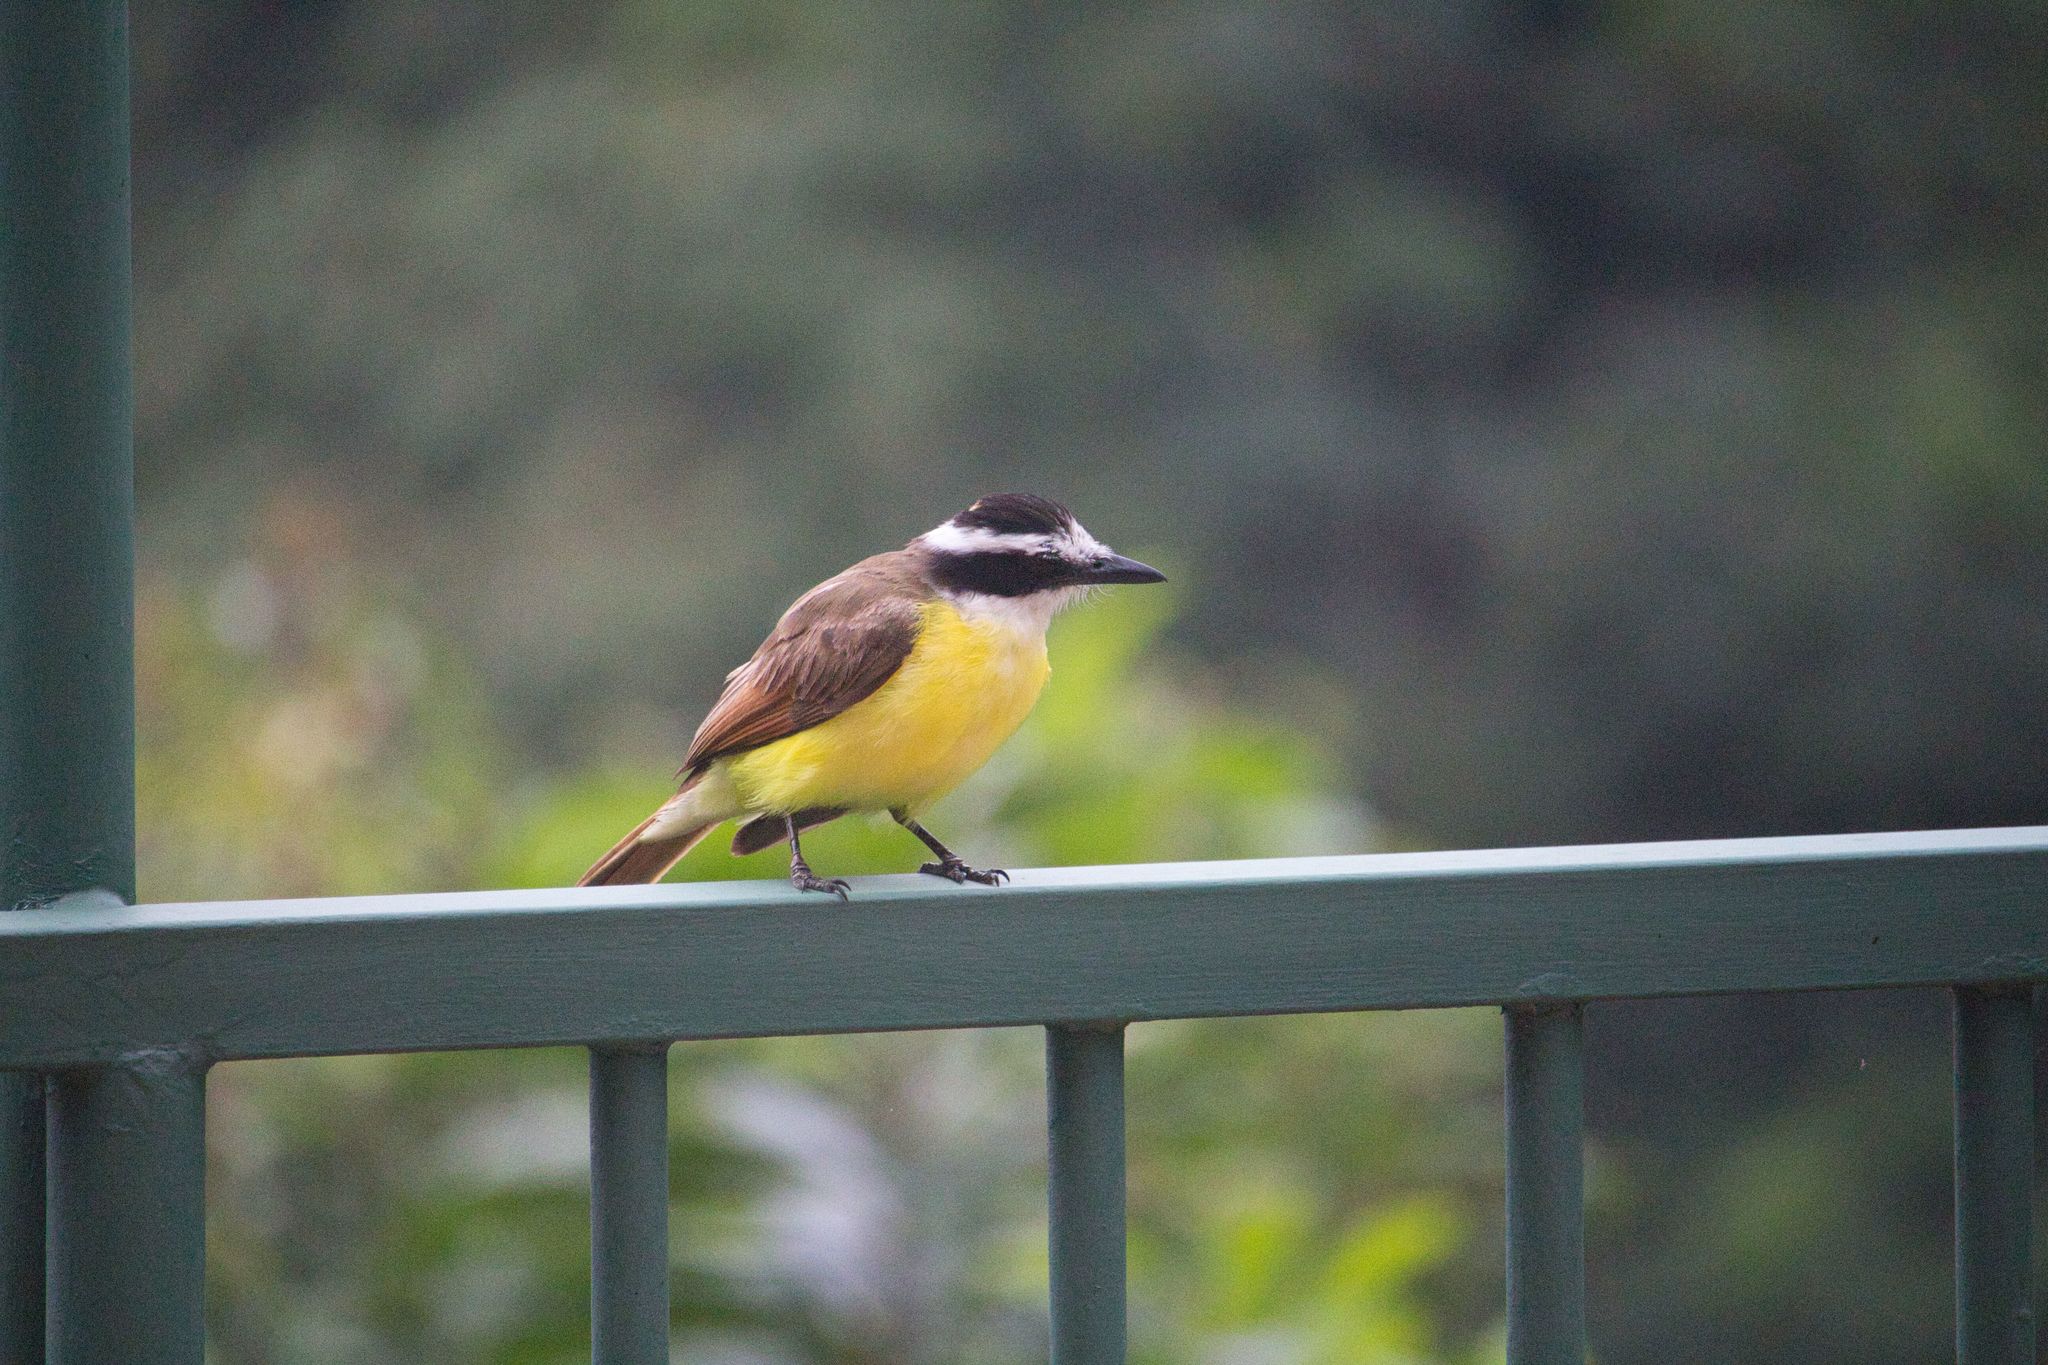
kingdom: Animalia
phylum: Chordata
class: Aves
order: Passeriformes
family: Tyrannidae
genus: Pitangus
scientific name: Pitangus sulphuratus
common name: Great kiskadee
